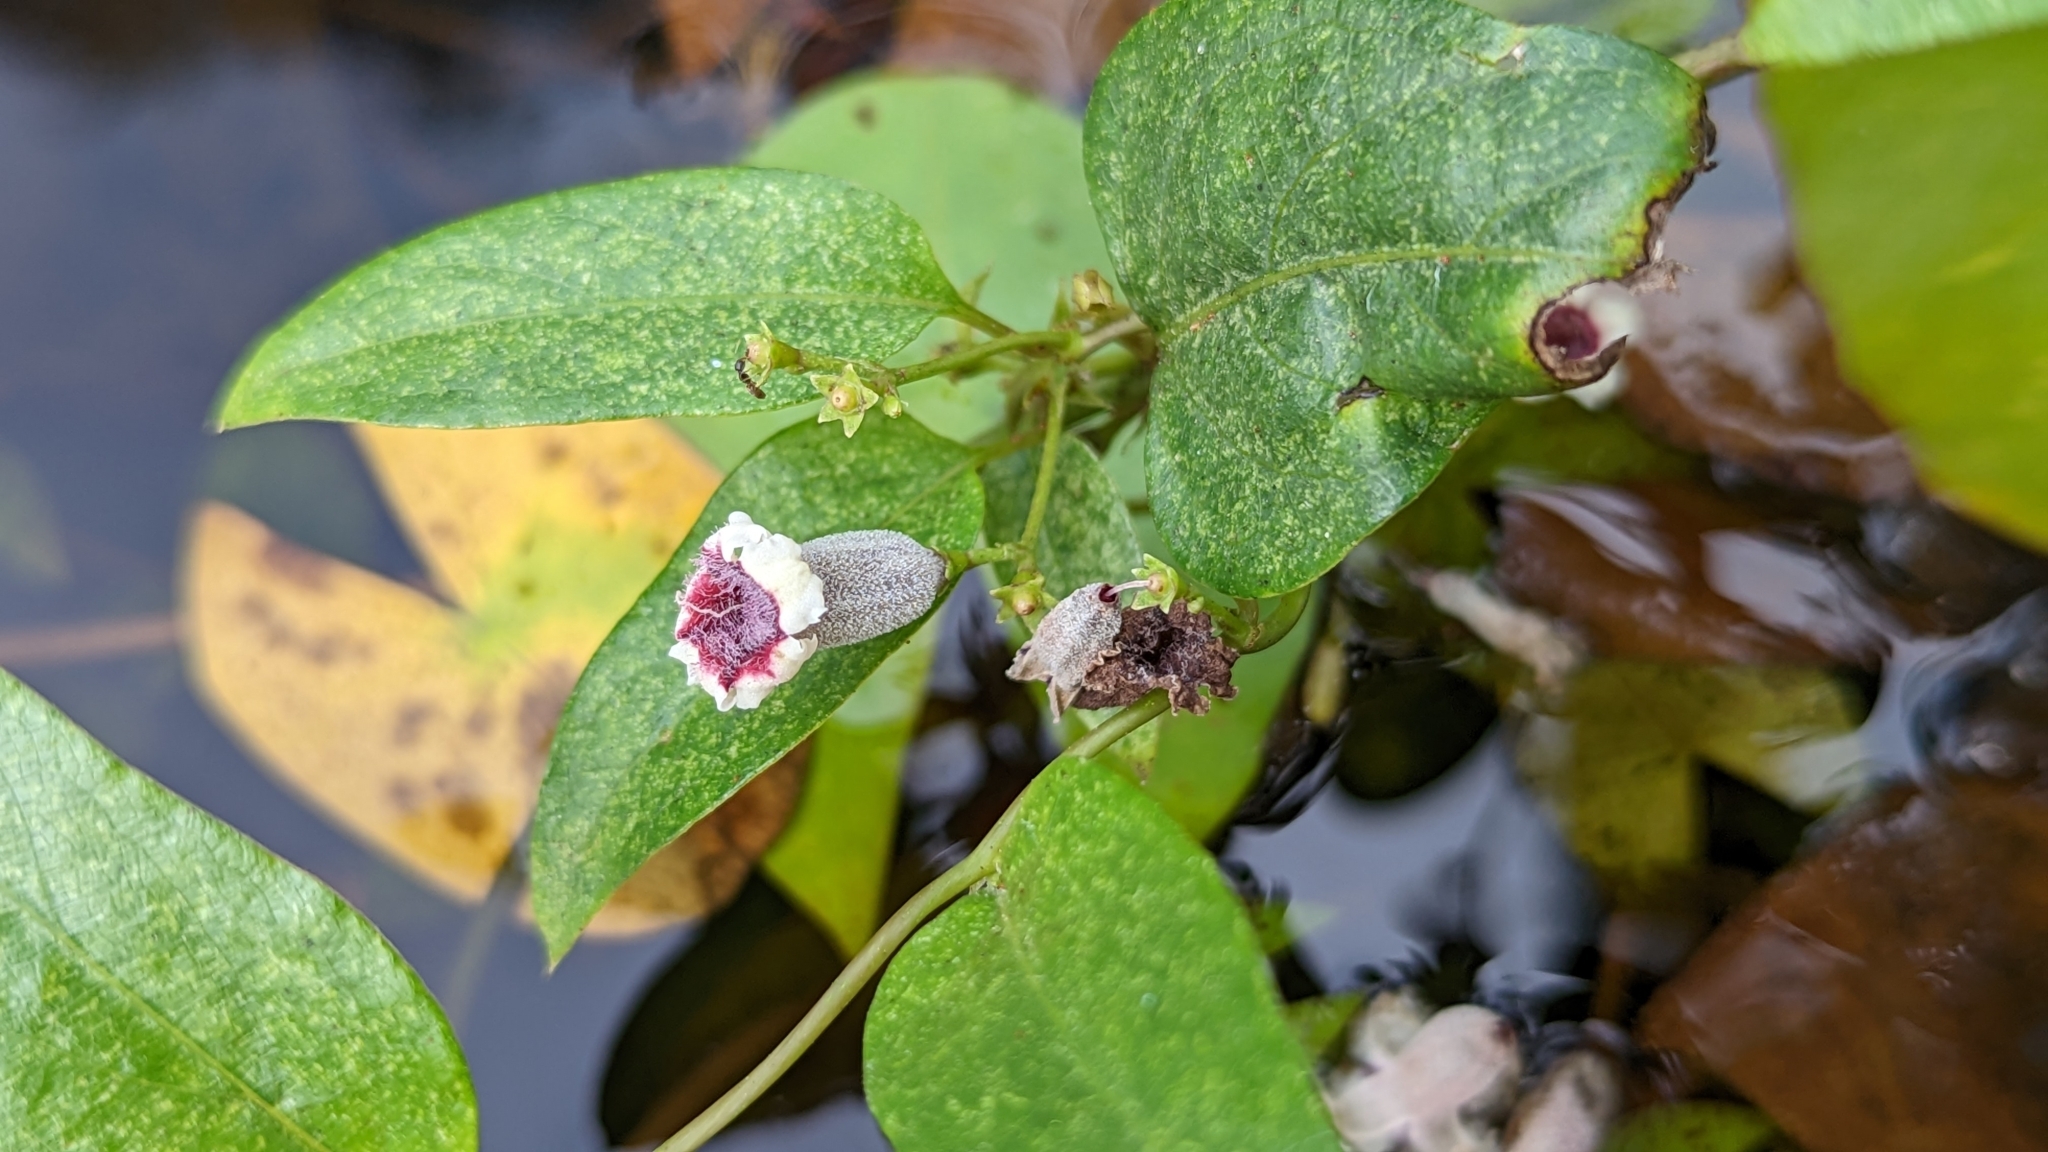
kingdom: Plantae
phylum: Tracheophyta
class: Magnoliopsida
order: Gentianales
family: Rubiaceae
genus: Paederia
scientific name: Paederia foetida
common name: Stinkvine
